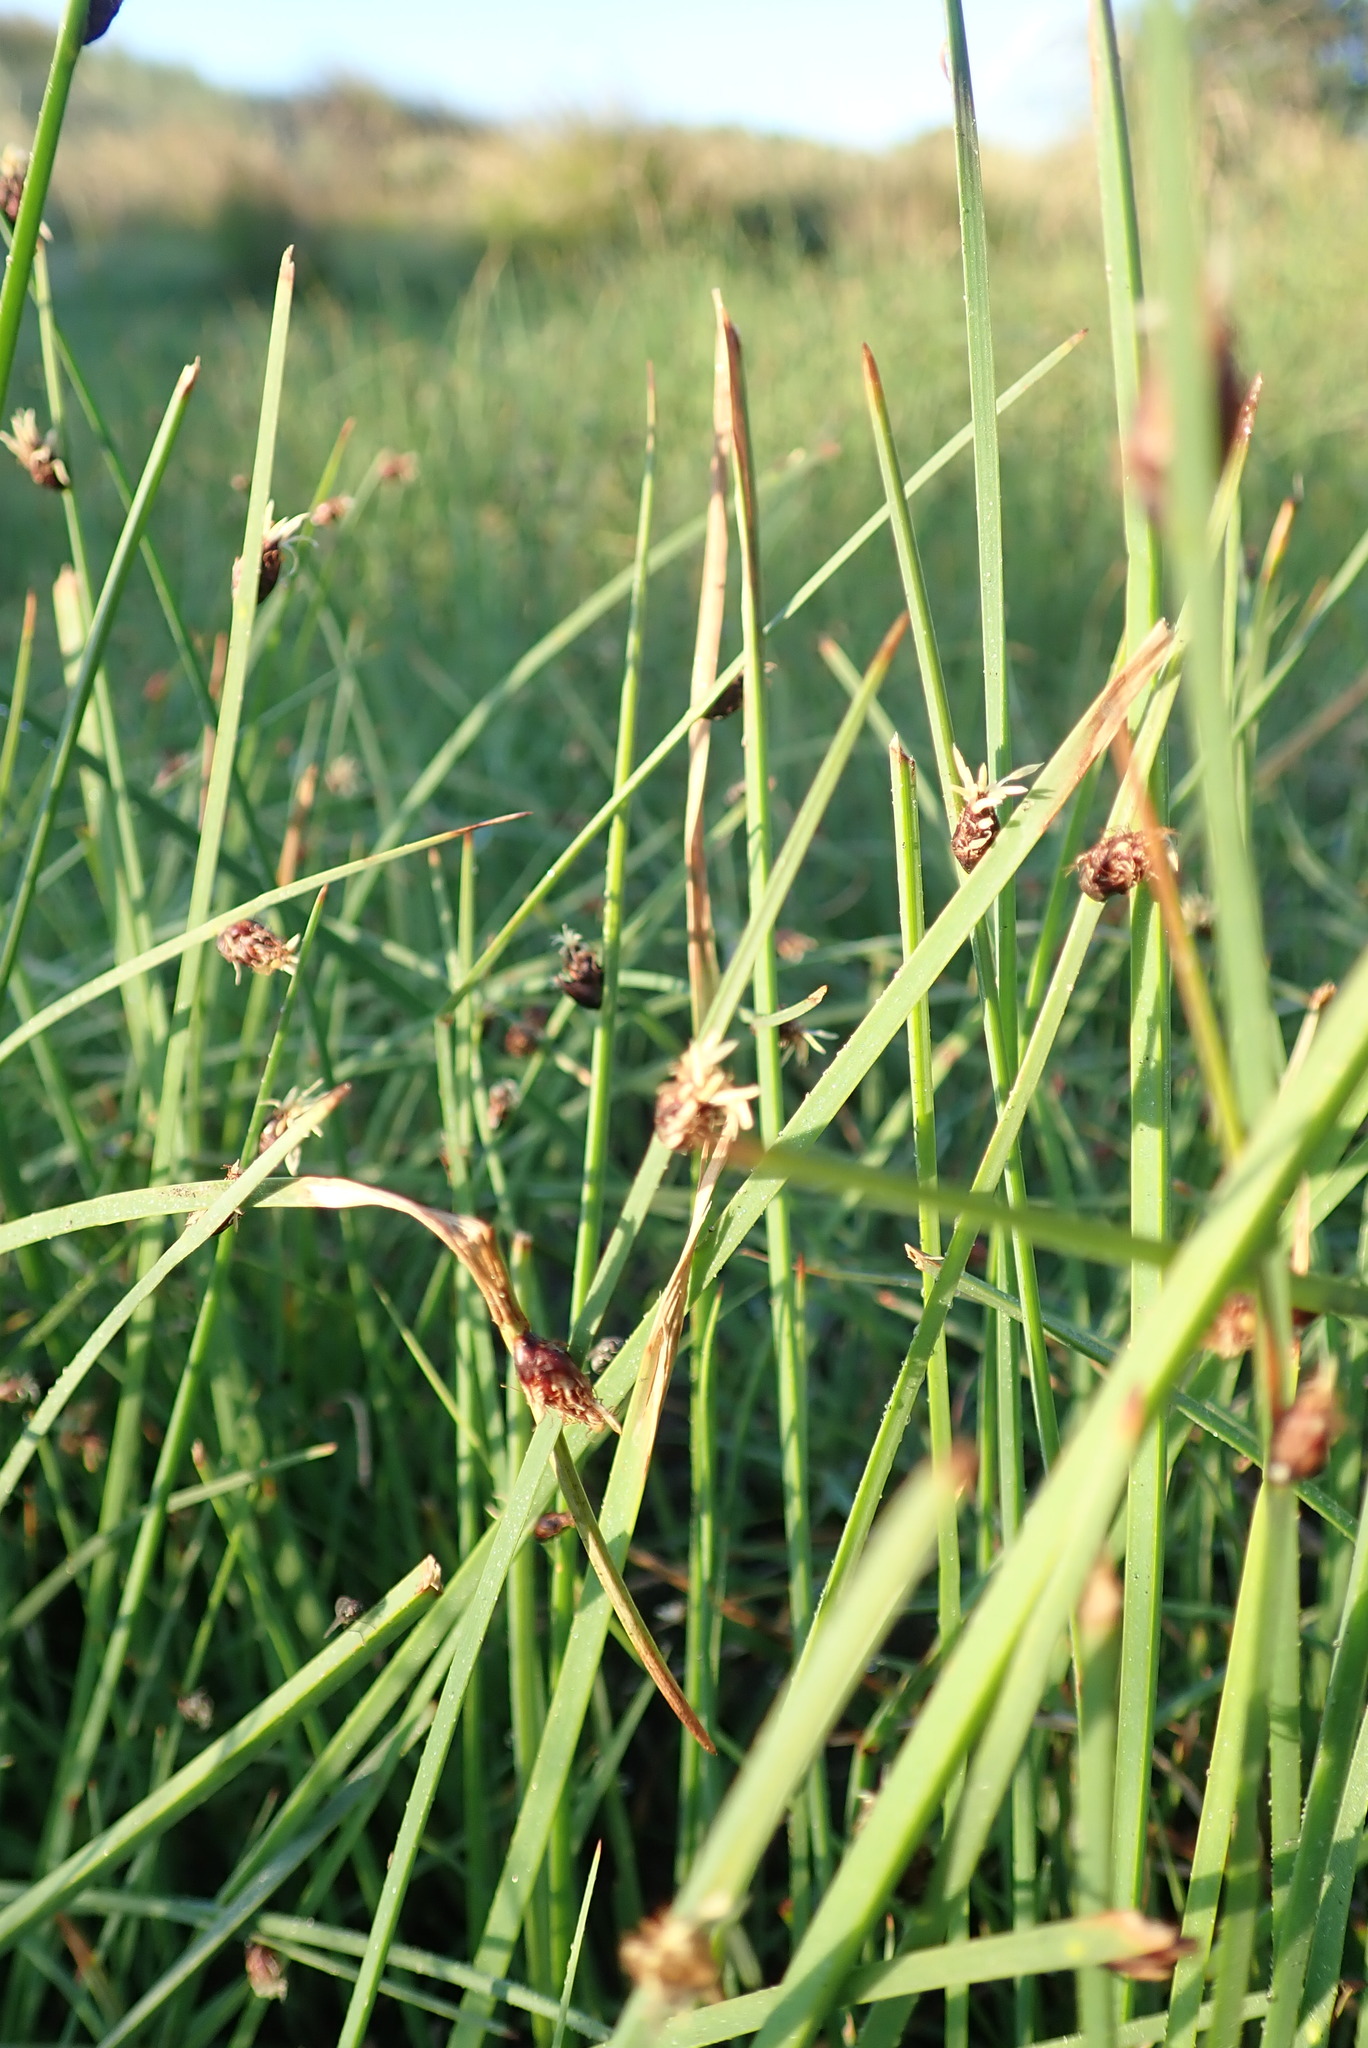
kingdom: Plantae
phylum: Tracheophyta
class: Liliopsida
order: Poales
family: Cyperaceae
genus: Schoenoplectus
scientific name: Schoenoplectus pungens
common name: Sharp club-rush
